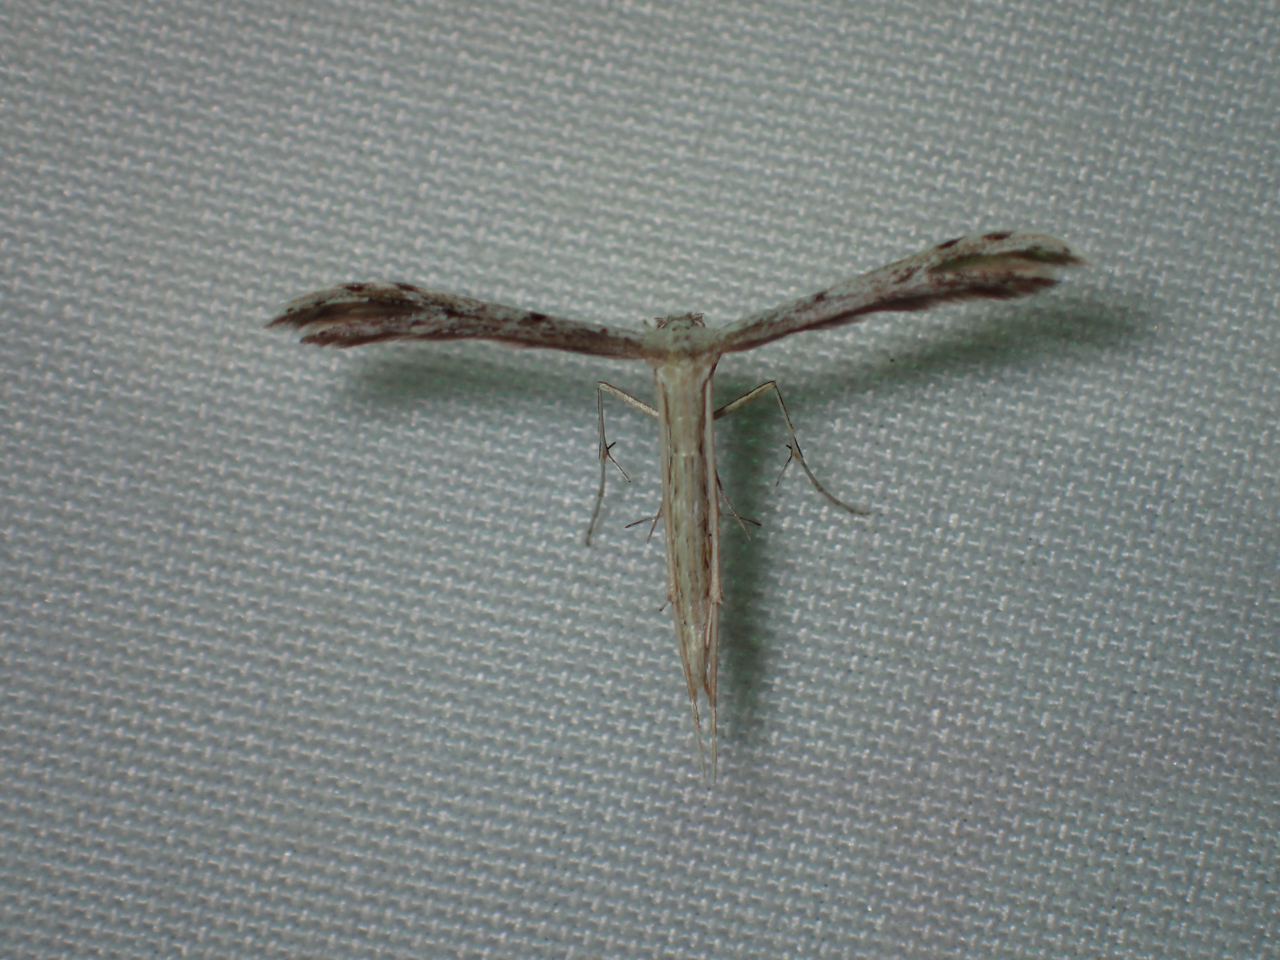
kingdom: Animalia
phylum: Arthropoda
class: Insecta
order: Lepidoptera
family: Pterophoridae
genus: Pselnophorus
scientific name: Pselnophorus belfragei
